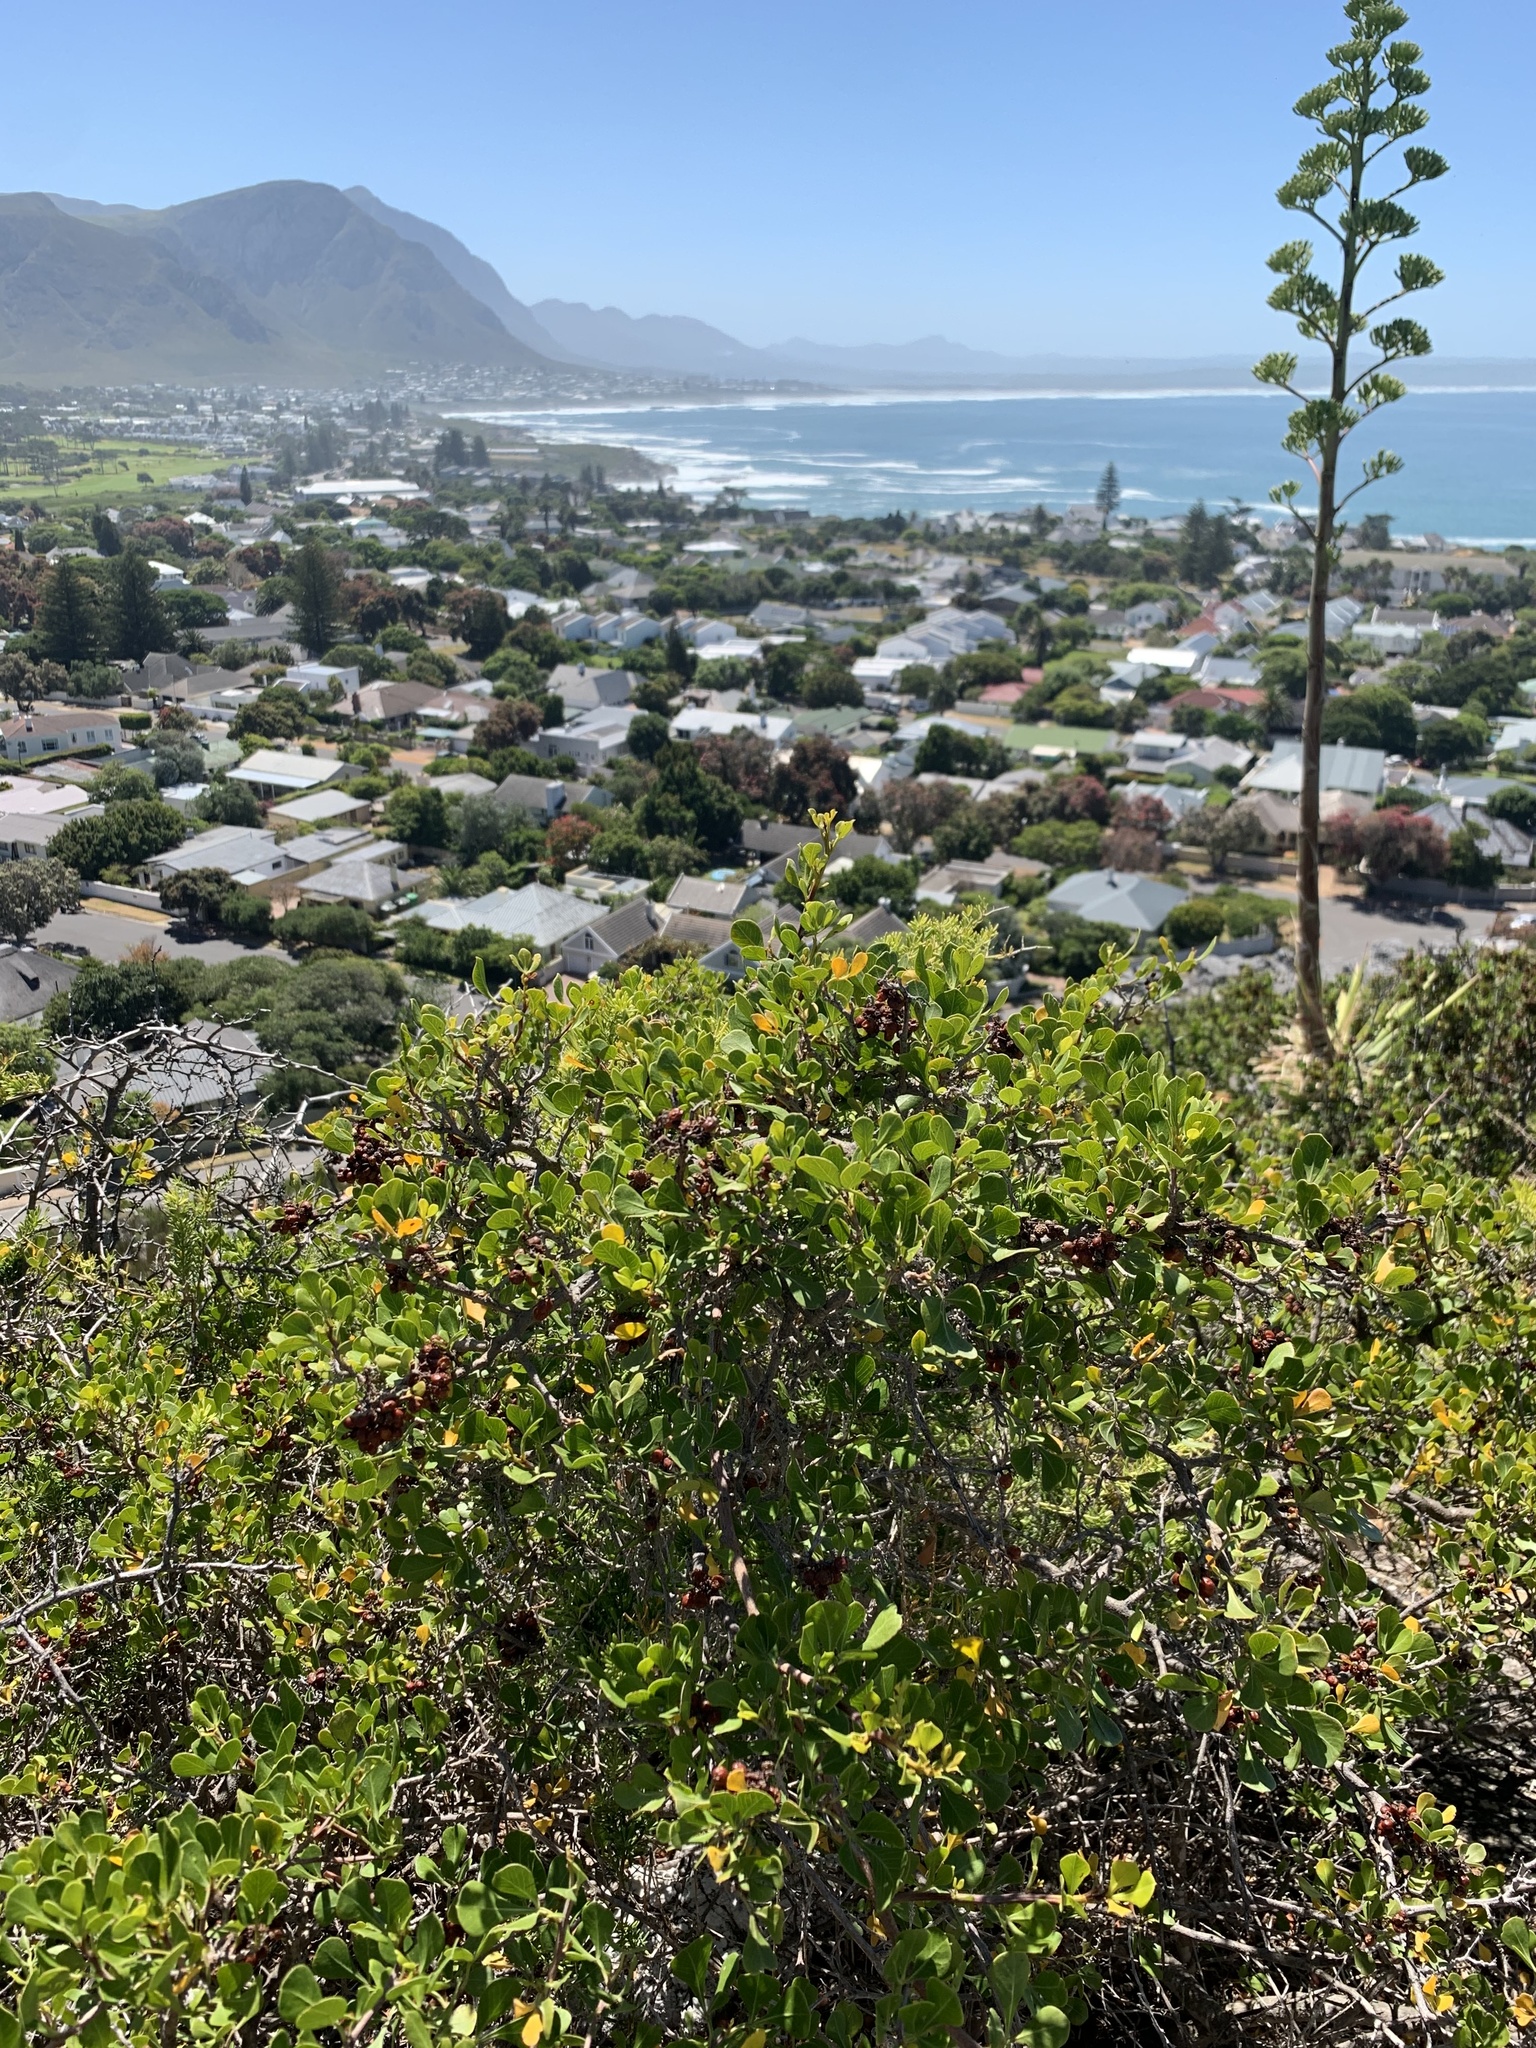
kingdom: Plantae
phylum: Tracheophyta
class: Magnoliopsida
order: Sapindales
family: Anacardiaceae
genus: Searsia
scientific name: Searsia glauca
